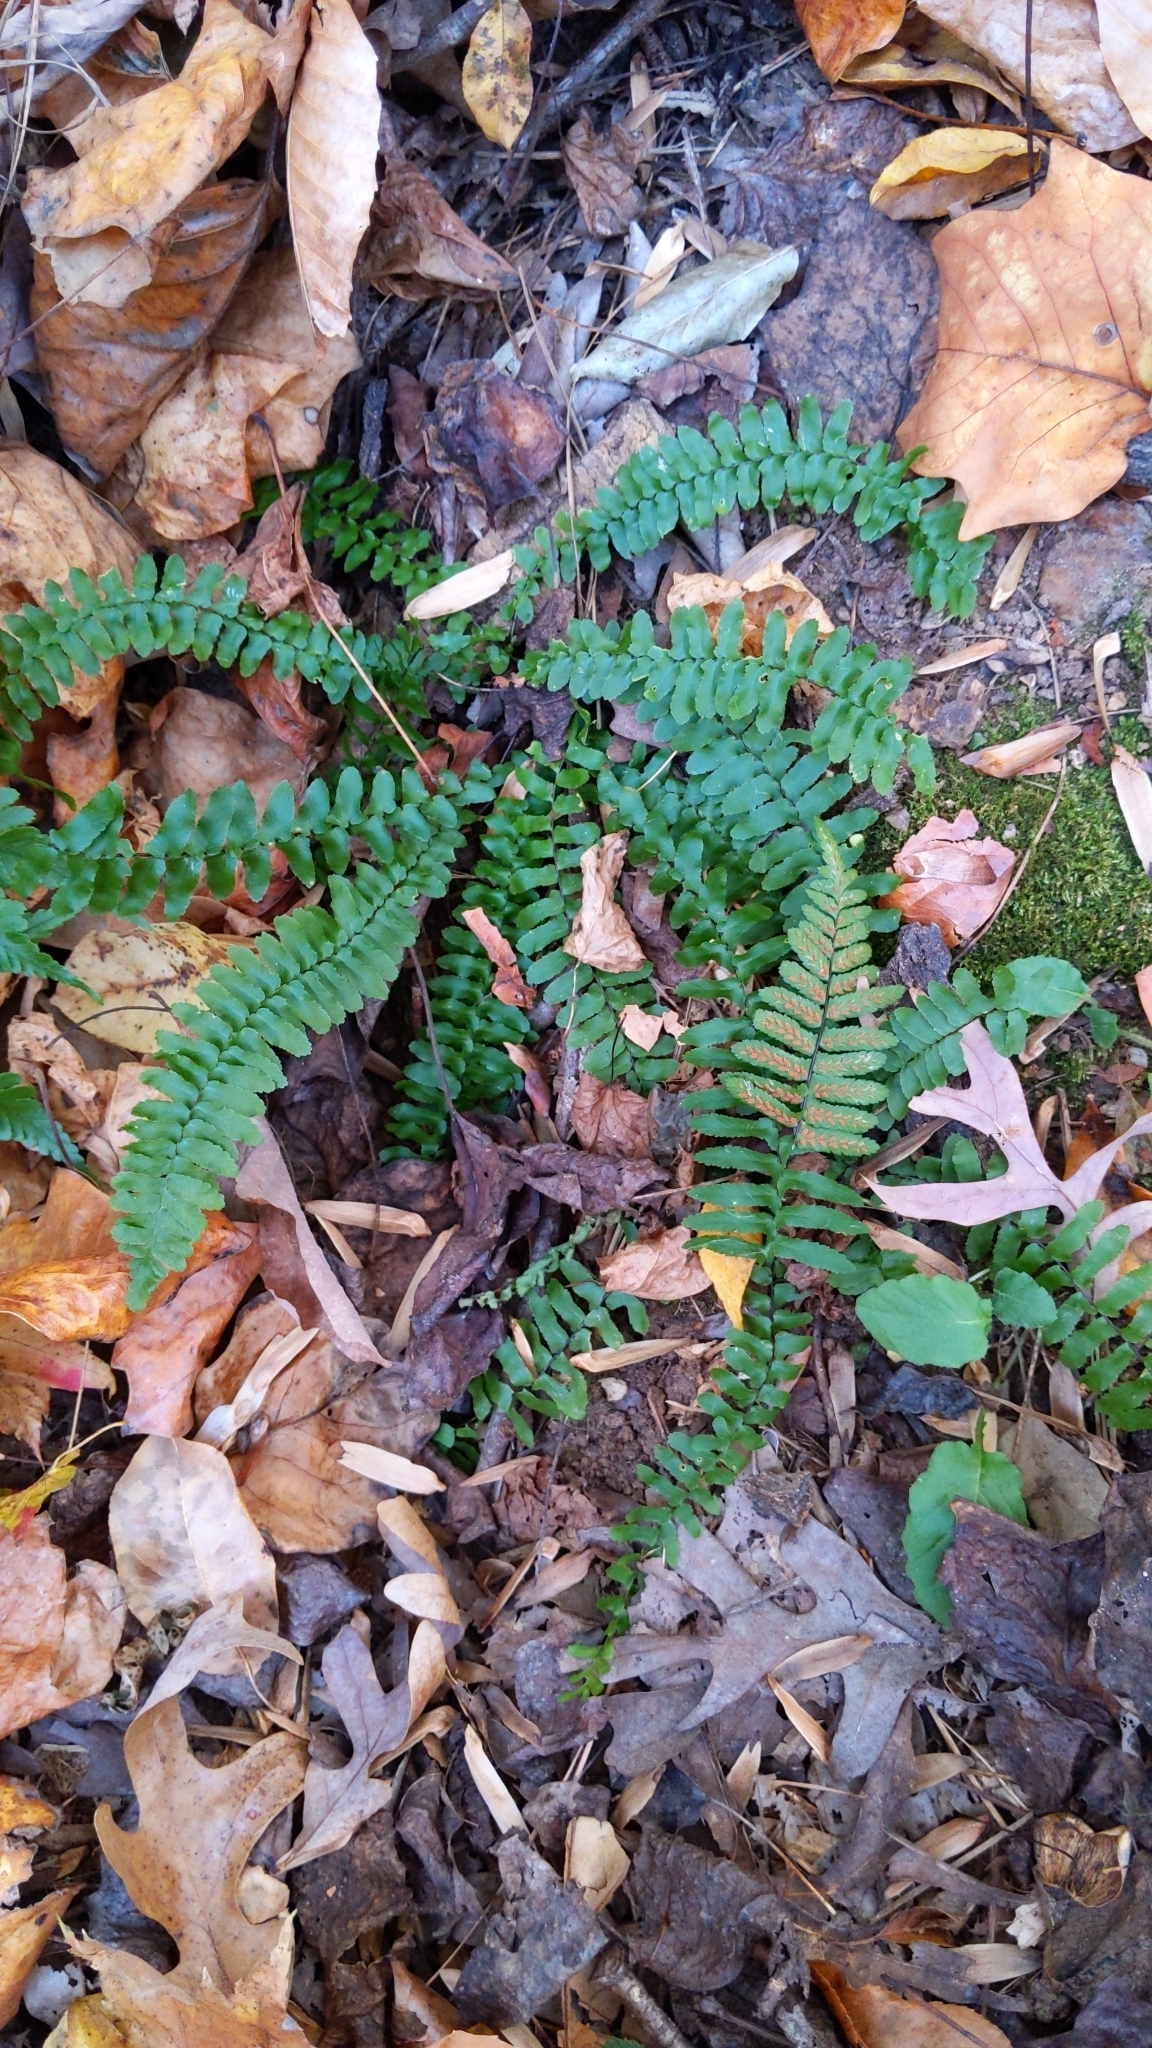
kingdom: Plantae
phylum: Tracheophyta
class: Polypodiopsida
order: Polypodiales
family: Aspleniaceae
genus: Asplenium
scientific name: Asplenium platyneuron
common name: Ebony spleenwort
